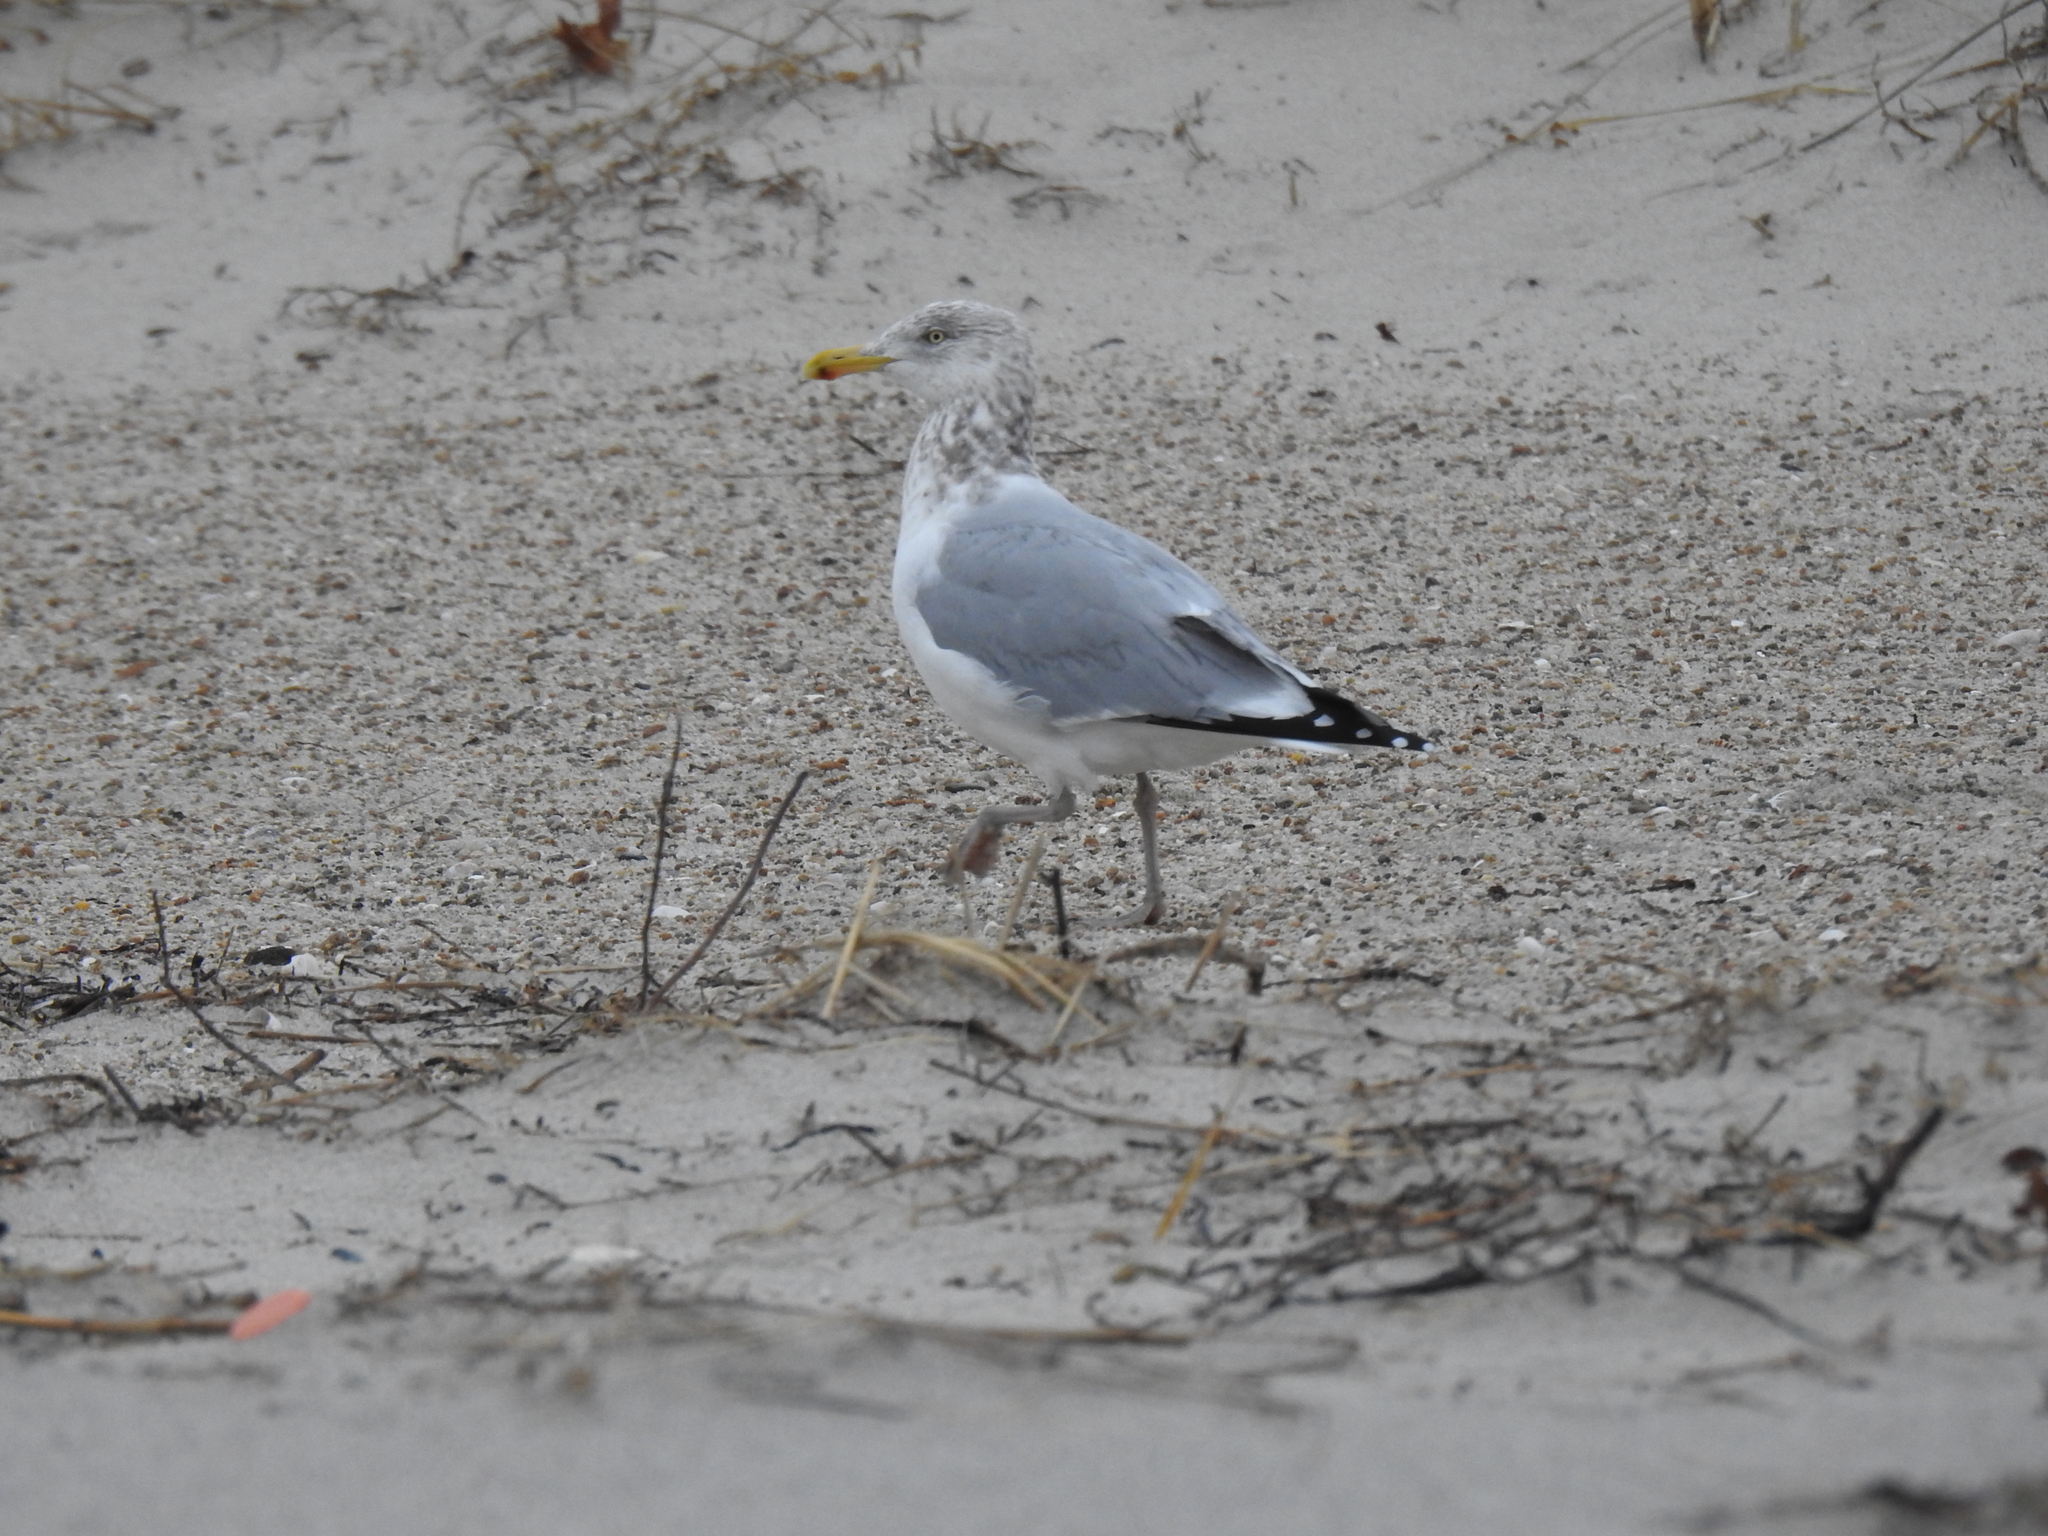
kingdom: Animalia
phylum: Chordata
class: Aves
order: Charadriiformes
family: Laridae
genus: Larus
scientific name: Larus argentatus
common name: Herring gull
